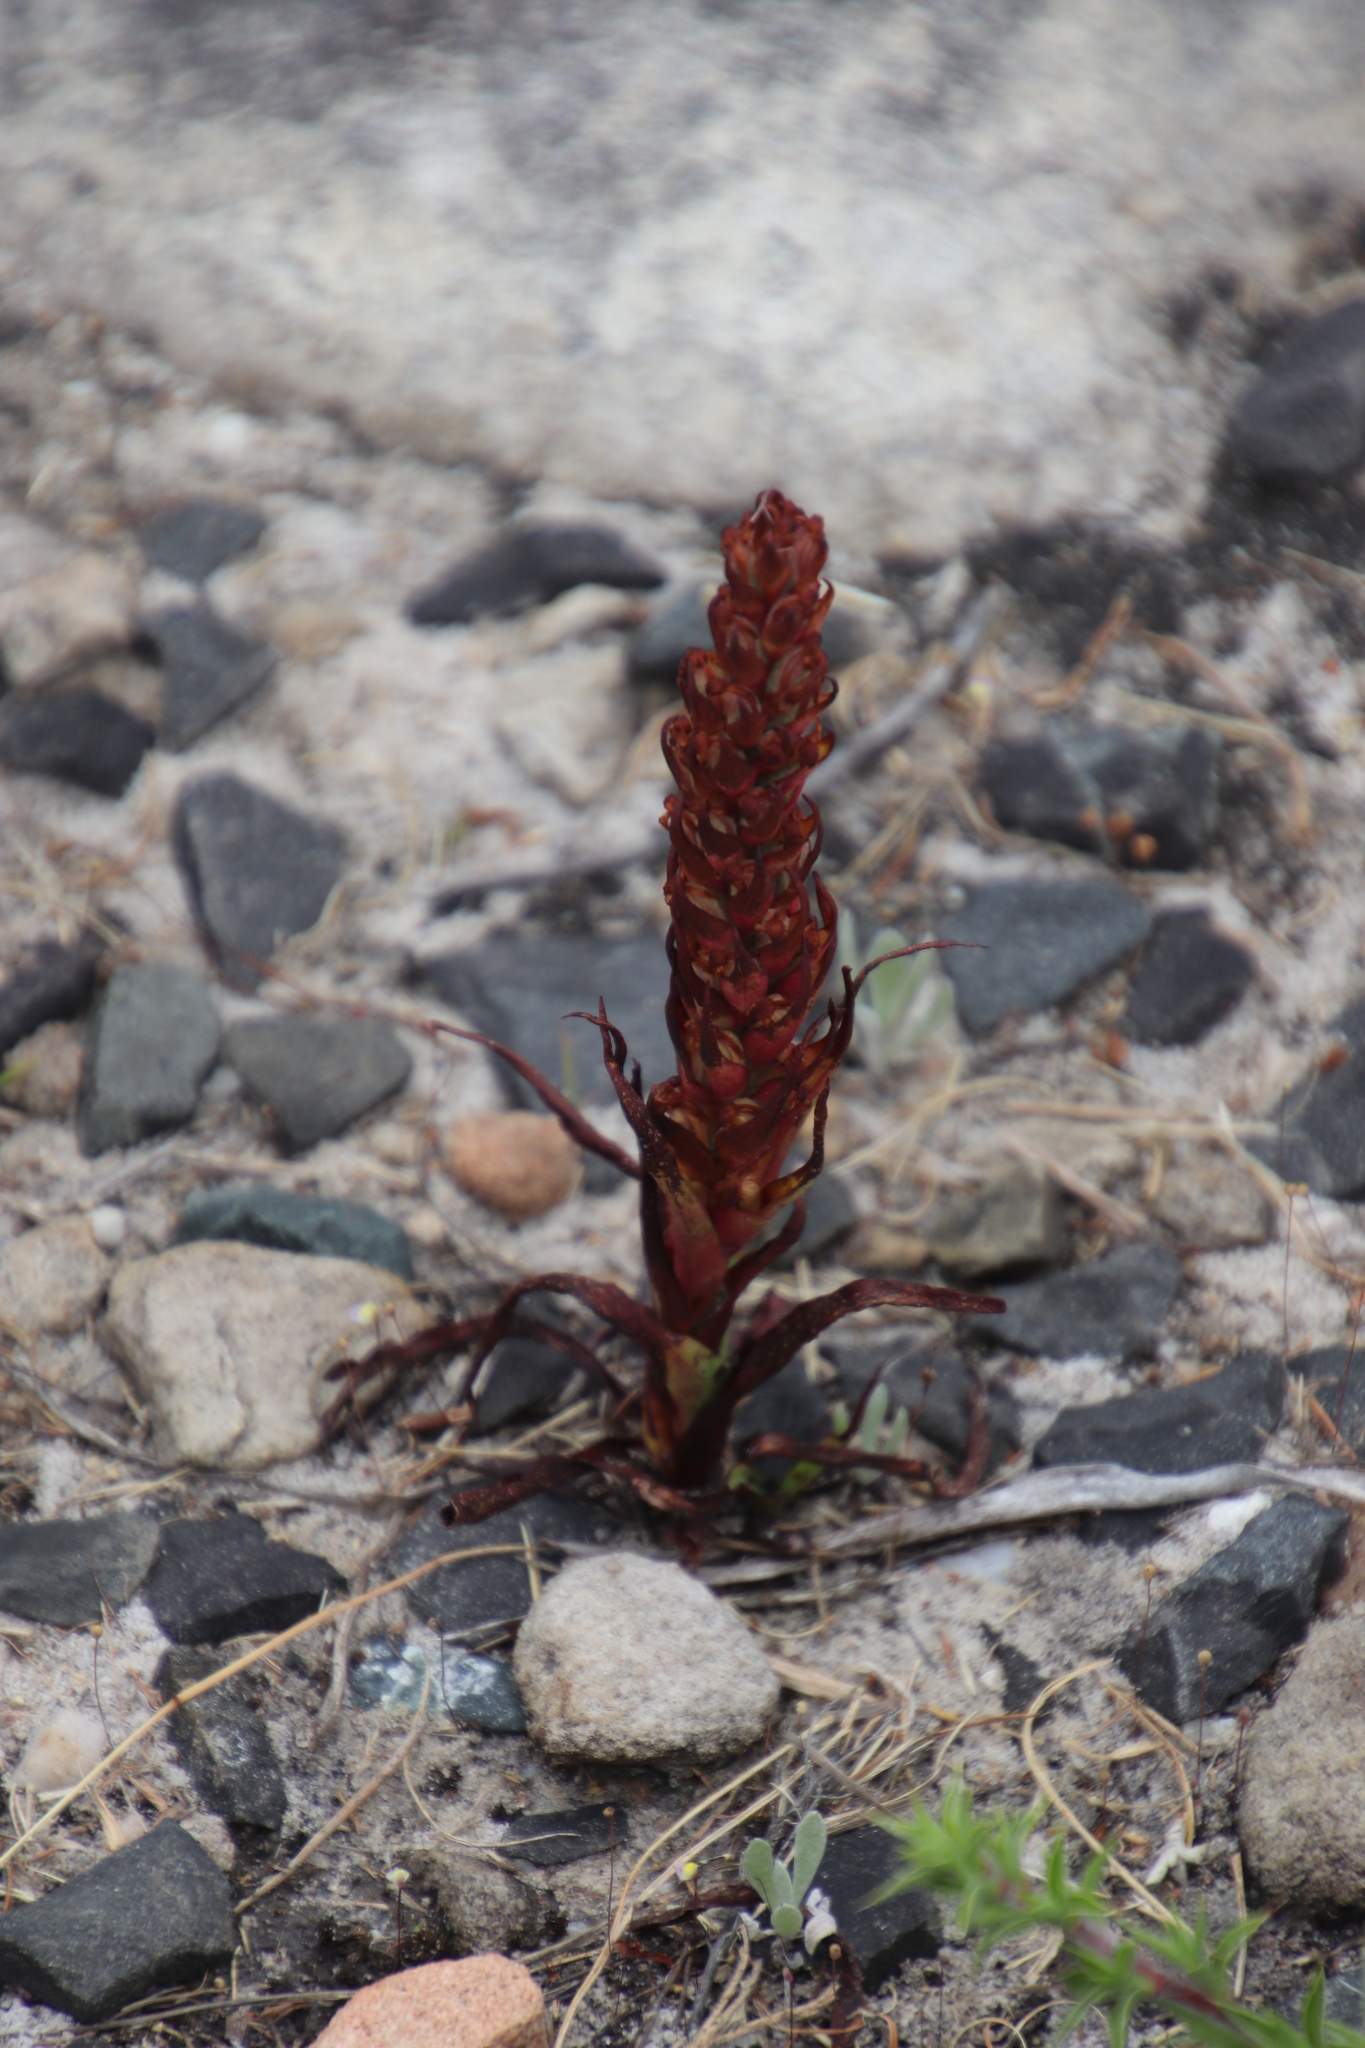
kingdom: Plantae
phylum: Tracheophyta
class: Liliopsida
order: Asparagales
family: Orchidaceae
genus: Disa
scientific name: Disa bracteata
